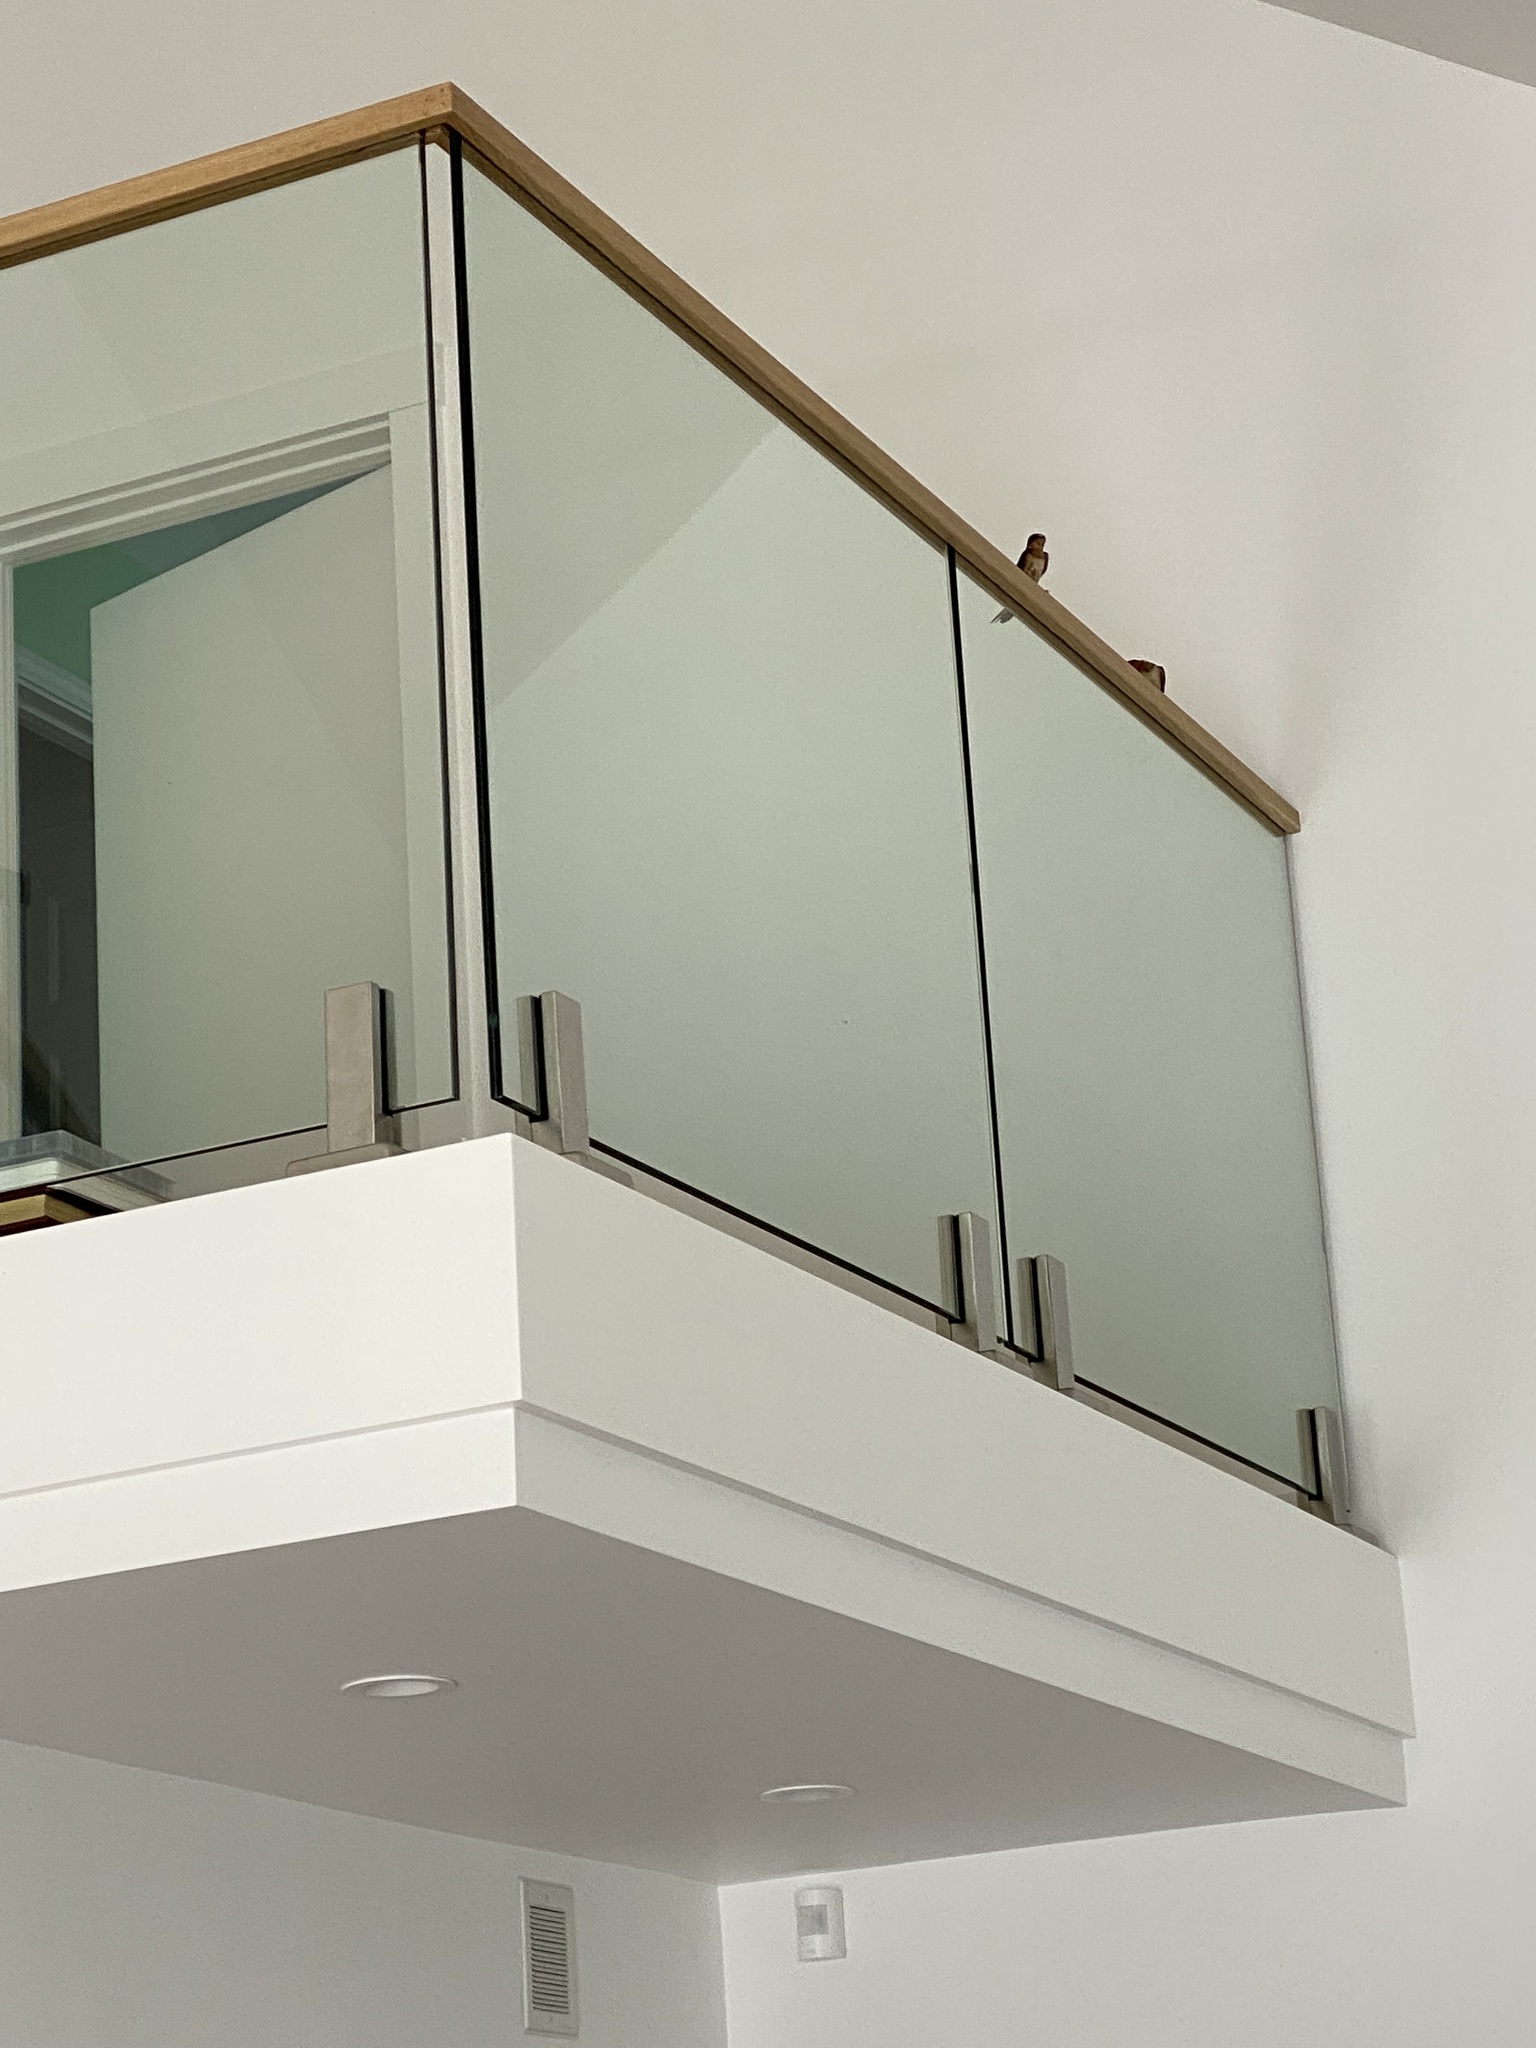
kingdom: Animalia
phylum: Chordata
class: Aves
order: Passeriformes
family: Hirundinidae
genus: Hirundo
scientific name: Hirundo rustica
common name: Barn swallow
